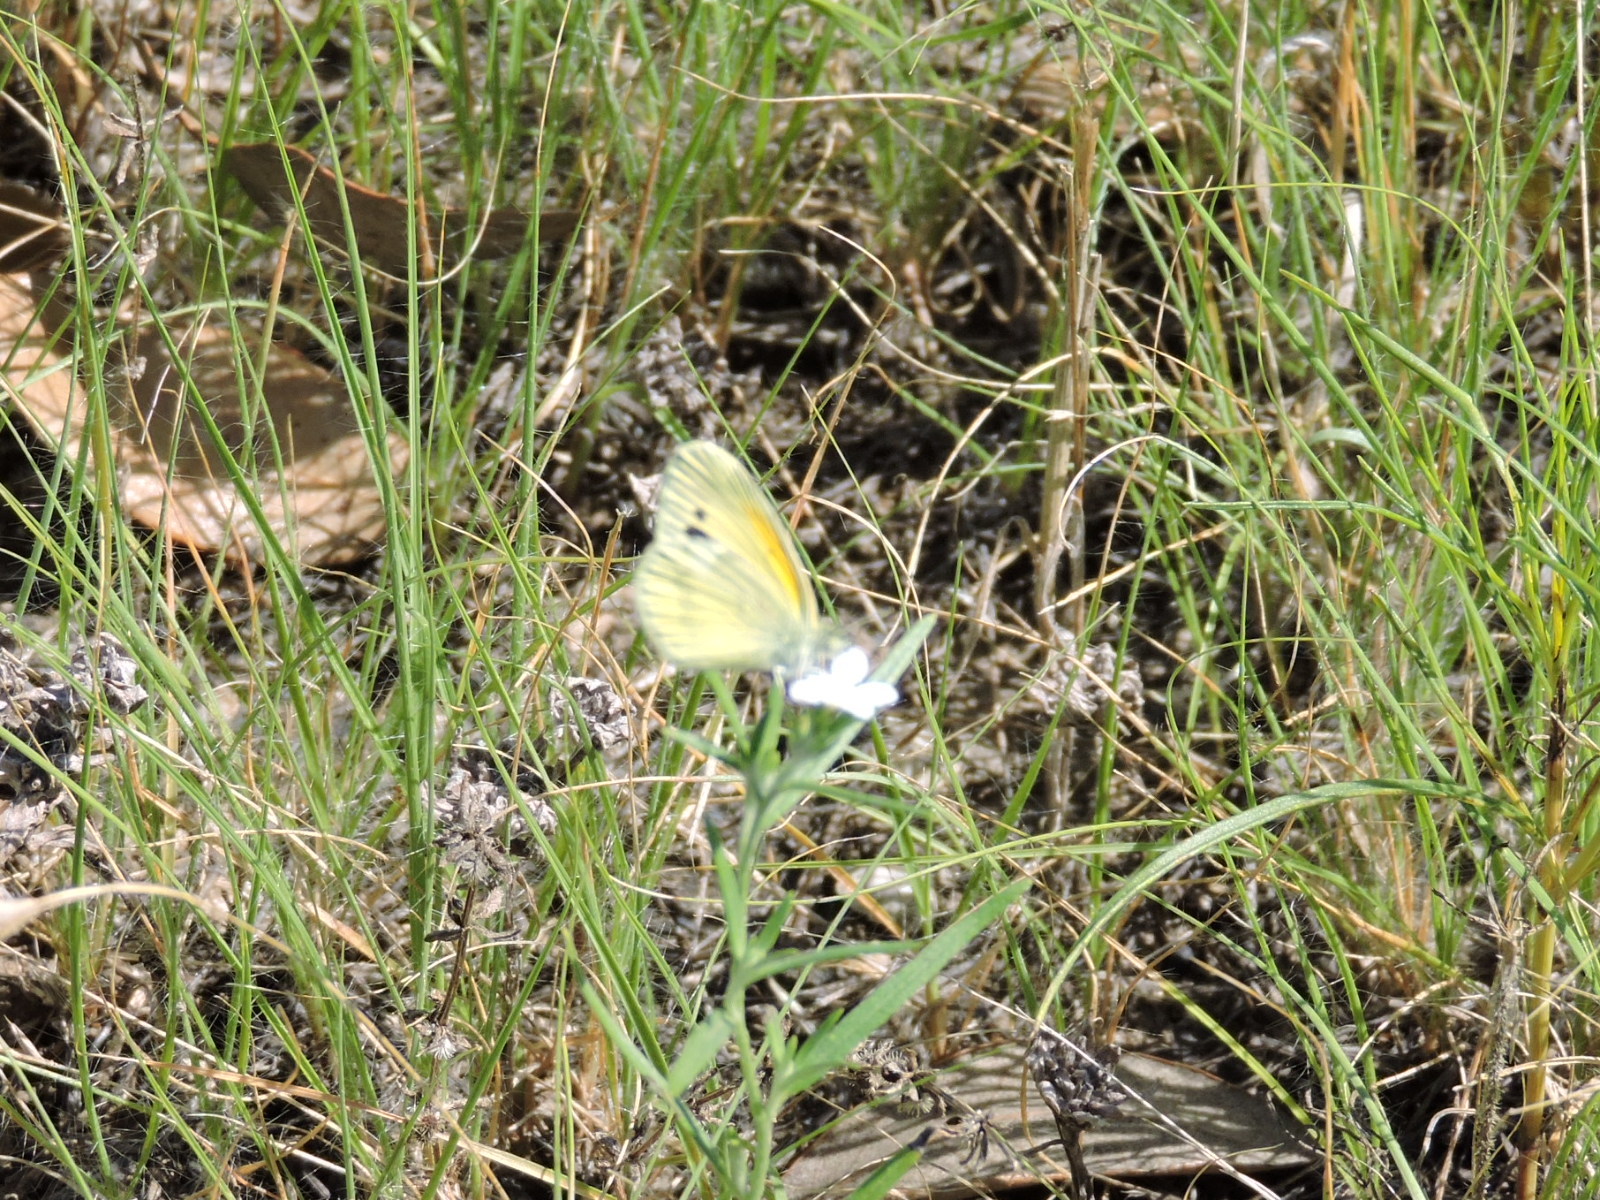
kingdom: Animalia
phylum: Arthropoda
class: Insecta
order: Lepidoptera
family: Pieridae
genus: Nathalis
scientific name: Nathalis iole
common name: Dainty sulphur
